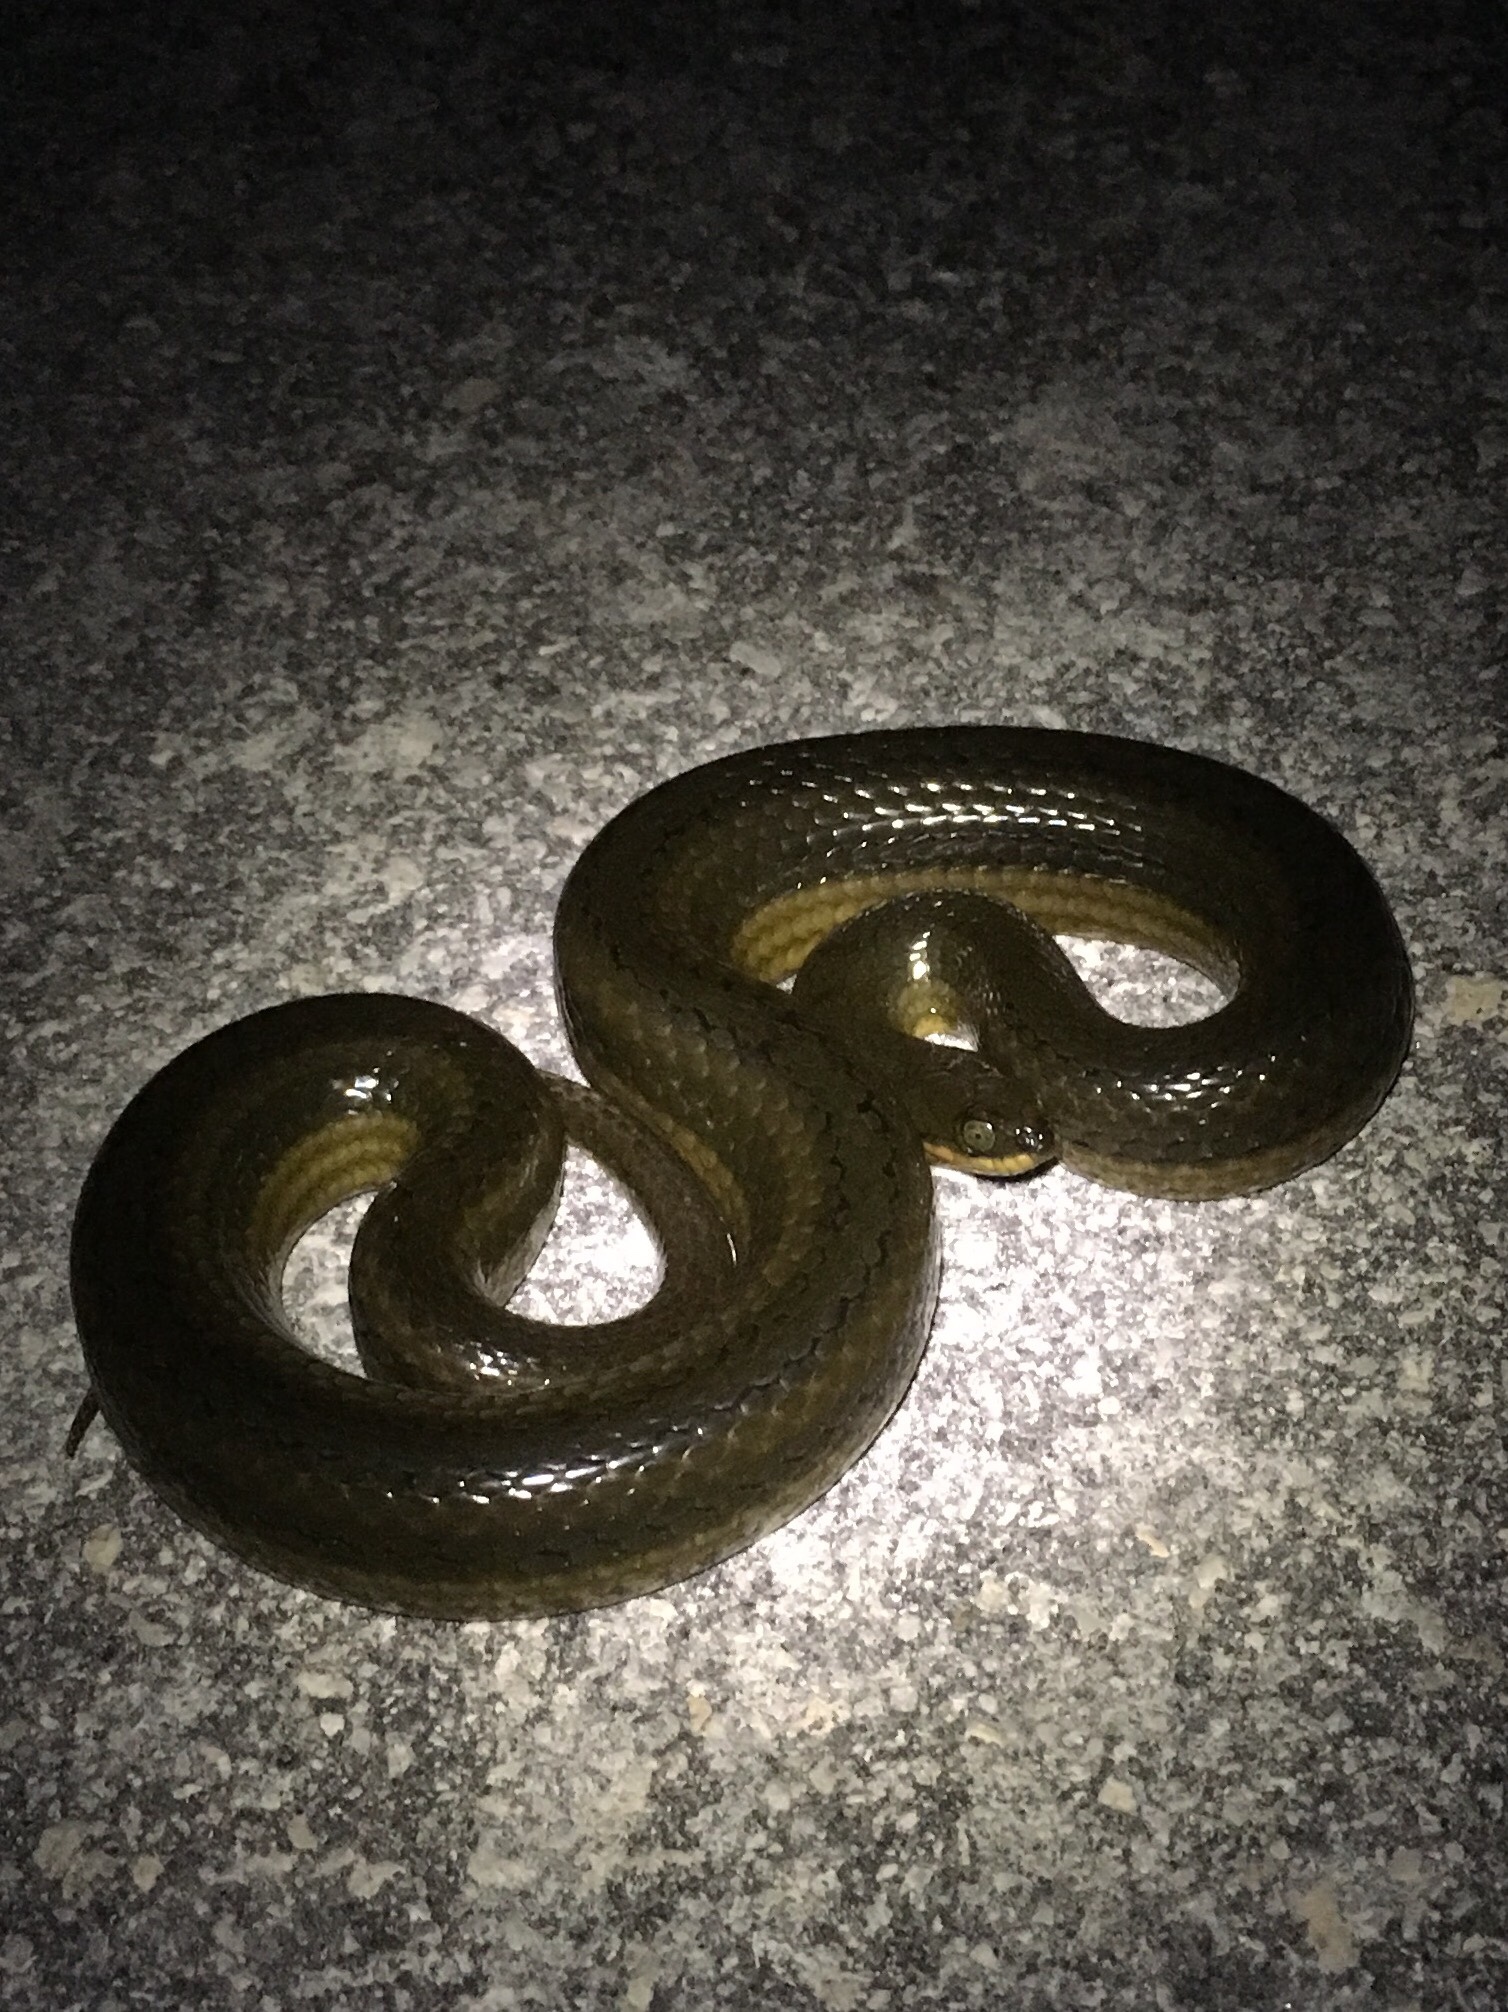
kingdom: Animalia
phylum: Chordata
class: Squamata
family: Colubridae
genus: Liodytes
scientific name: Liodytes alleni
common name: Striped crayfish snake
